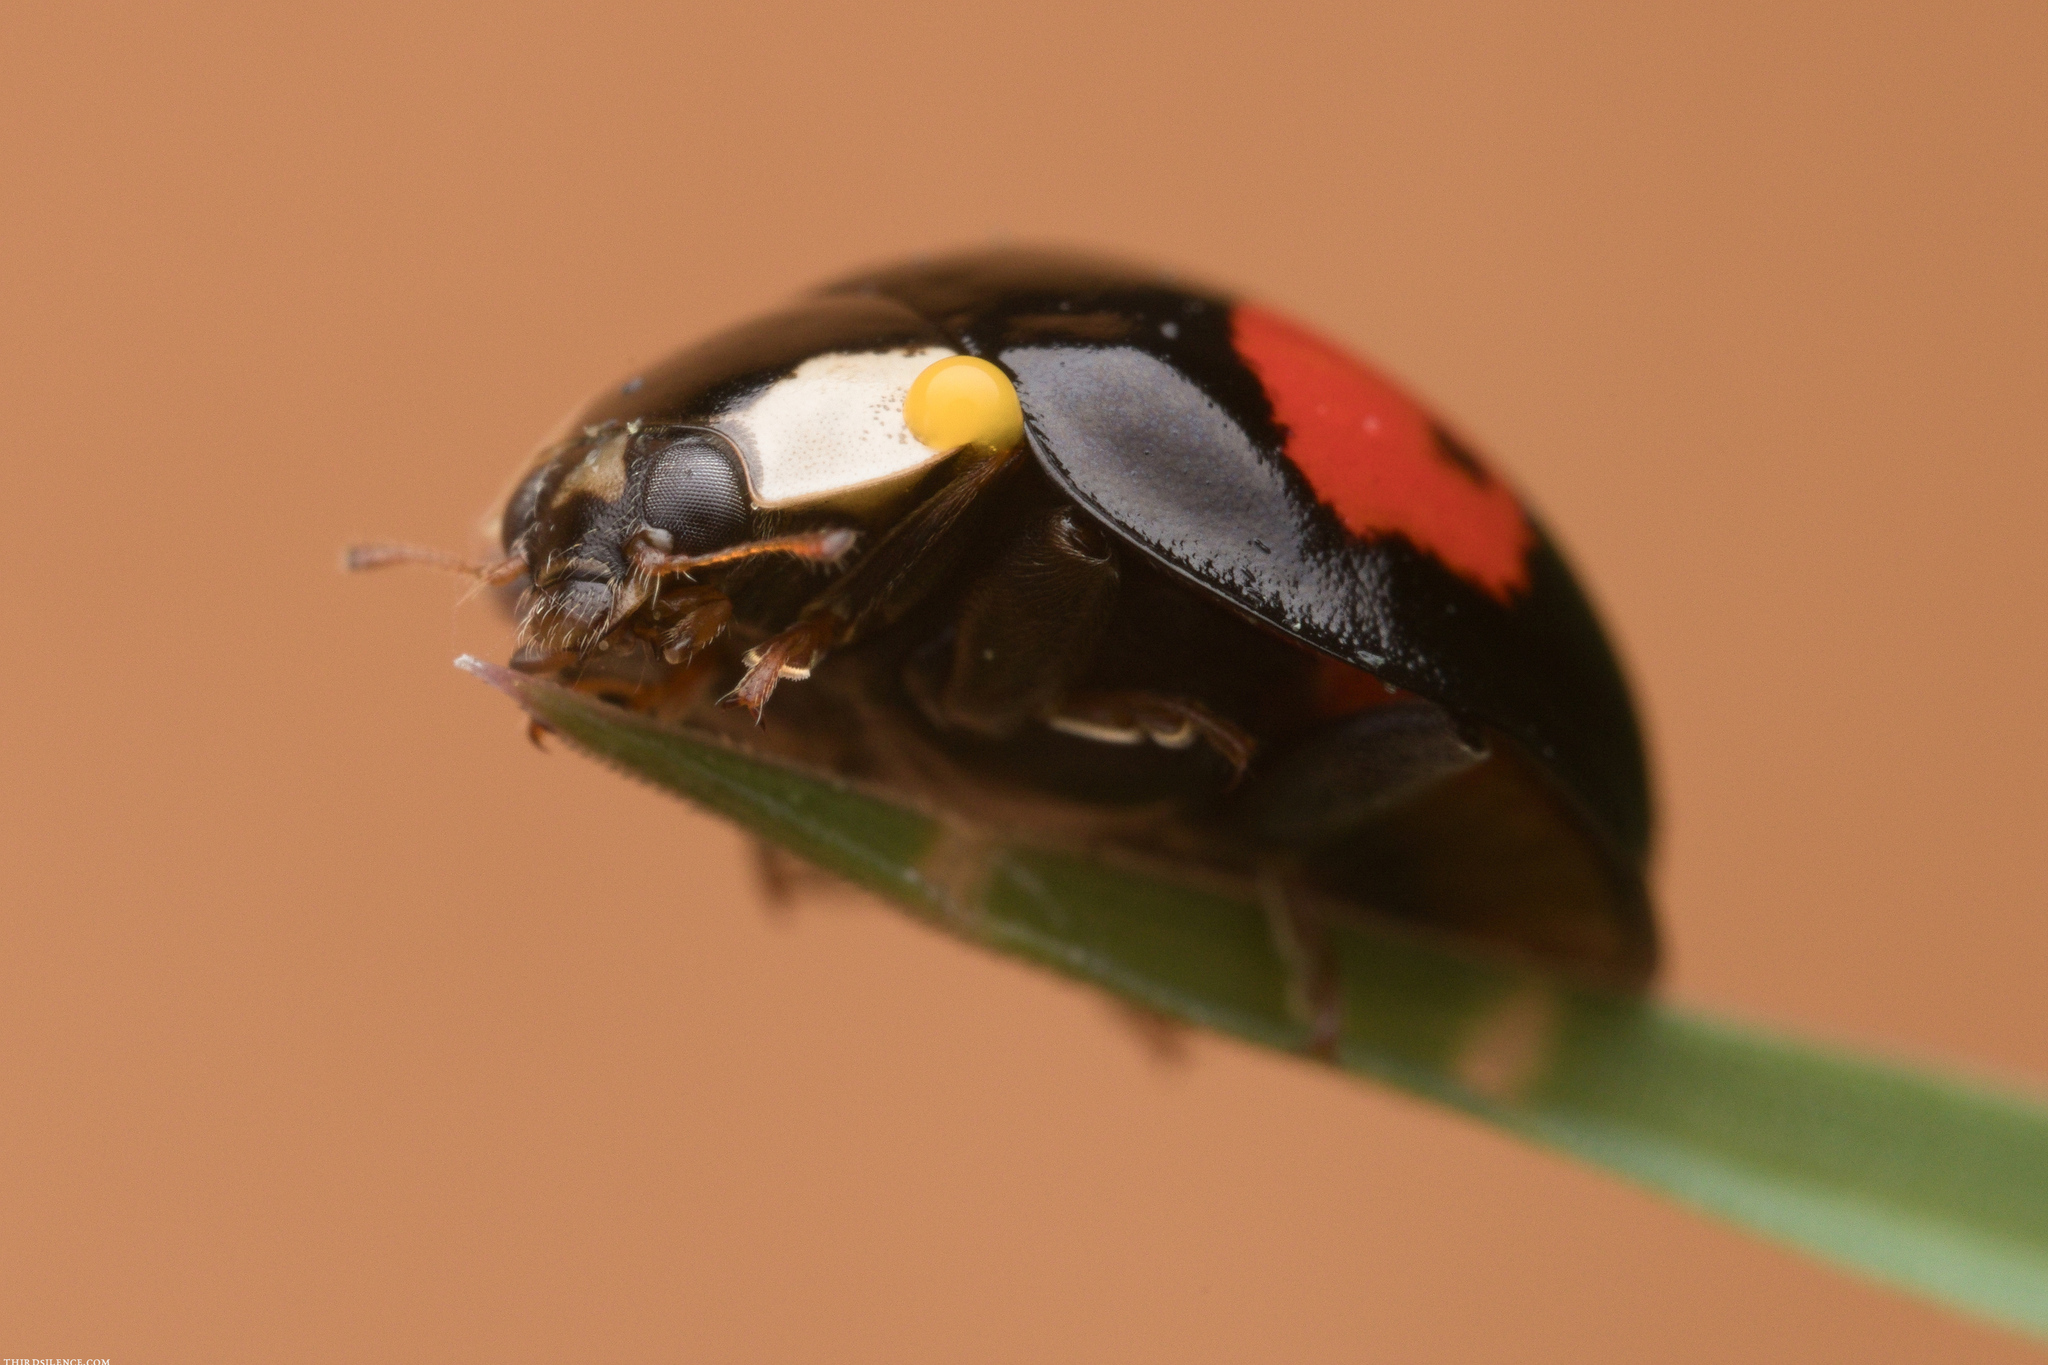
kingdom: Animalia
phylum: Arthropoda
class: Insecta
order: Coleoptera
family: Coccinellidae
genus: Harmonia
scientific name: Harmonia axyridis
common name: Harlequin ladybird
